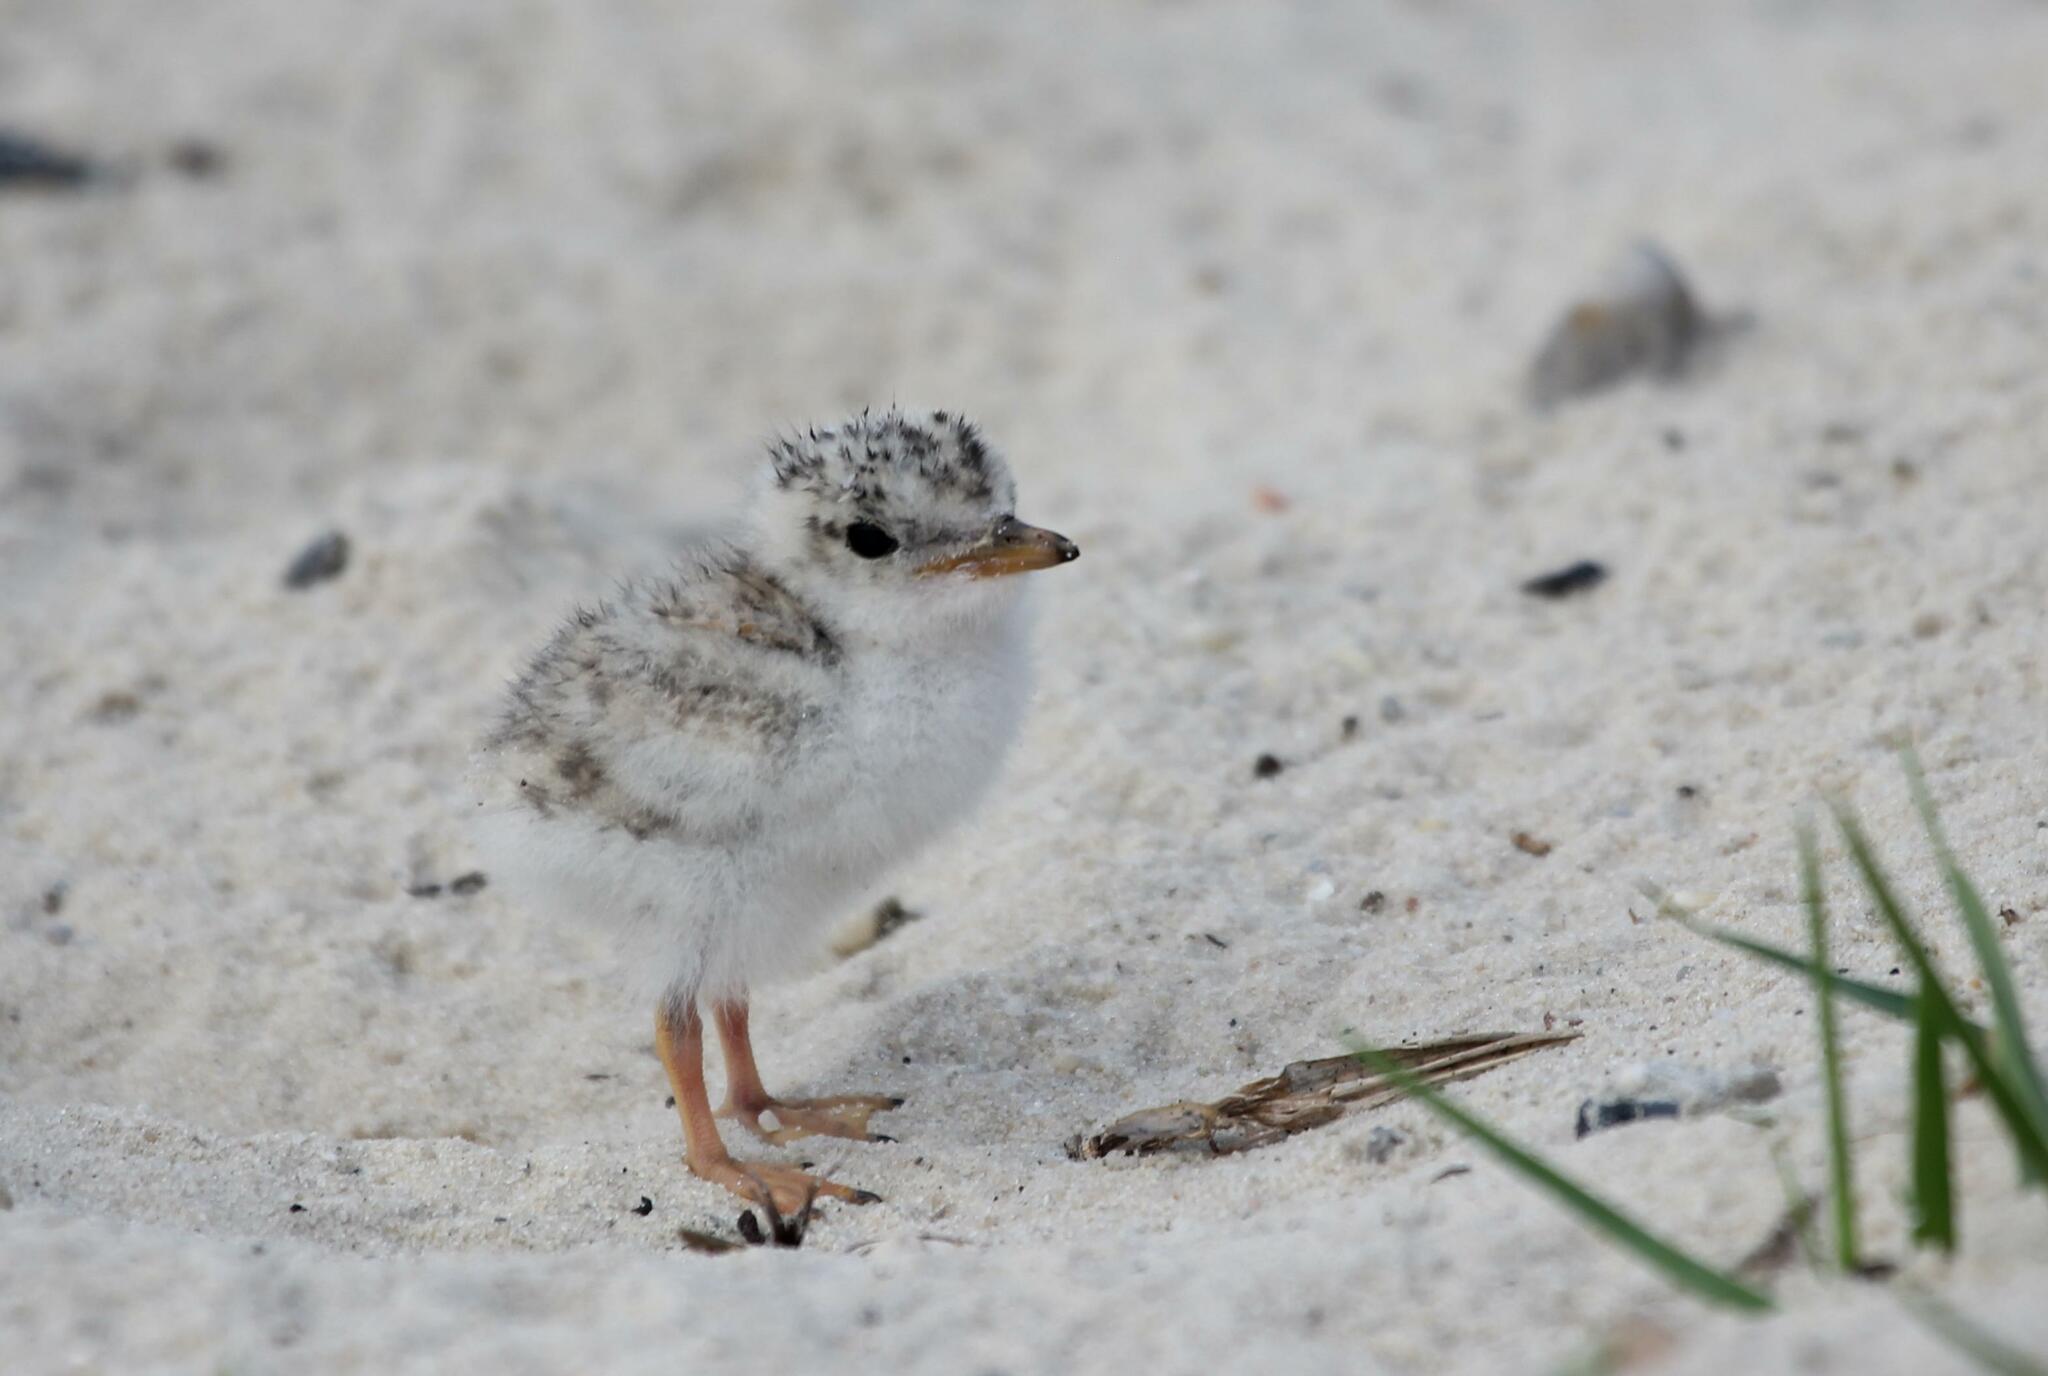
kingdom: Animalia
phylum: Chordata
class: Aves
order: Charadriiformes
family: Laridae
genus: Sternula
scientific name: Sternula antillarum
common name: Least tern
